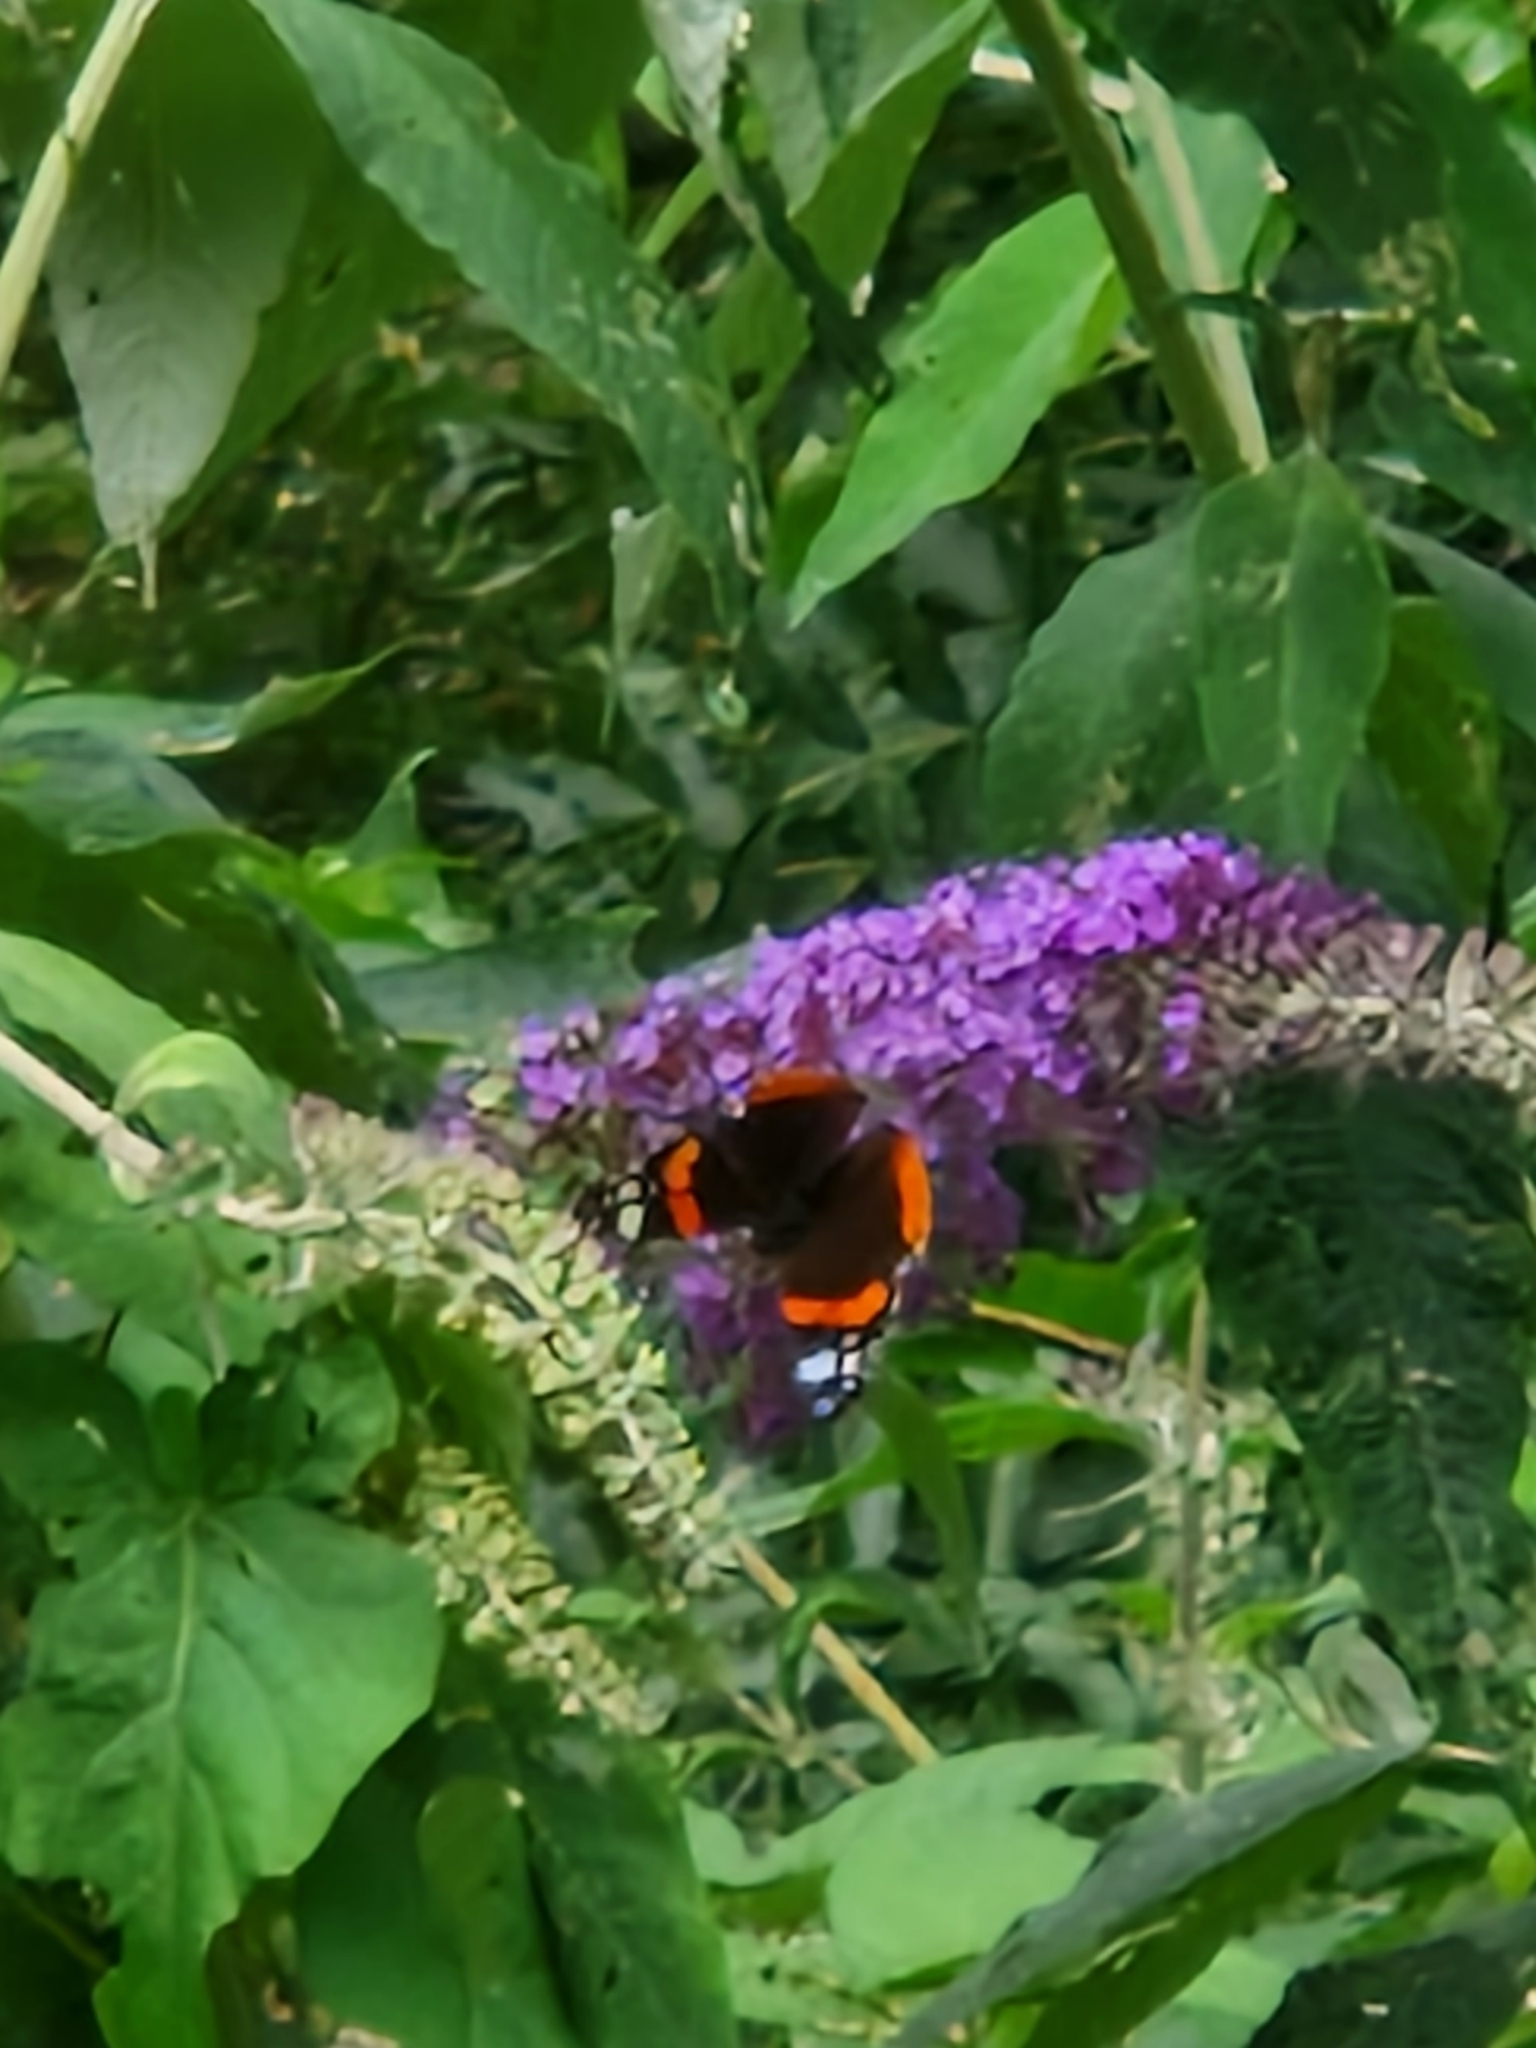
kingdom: Animalia
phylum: Arthropoda
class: Insecta
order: Lepidoptera
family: Nymphalidae
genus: Vanessa
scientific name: Vanessa atalanta
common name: Red admiral
